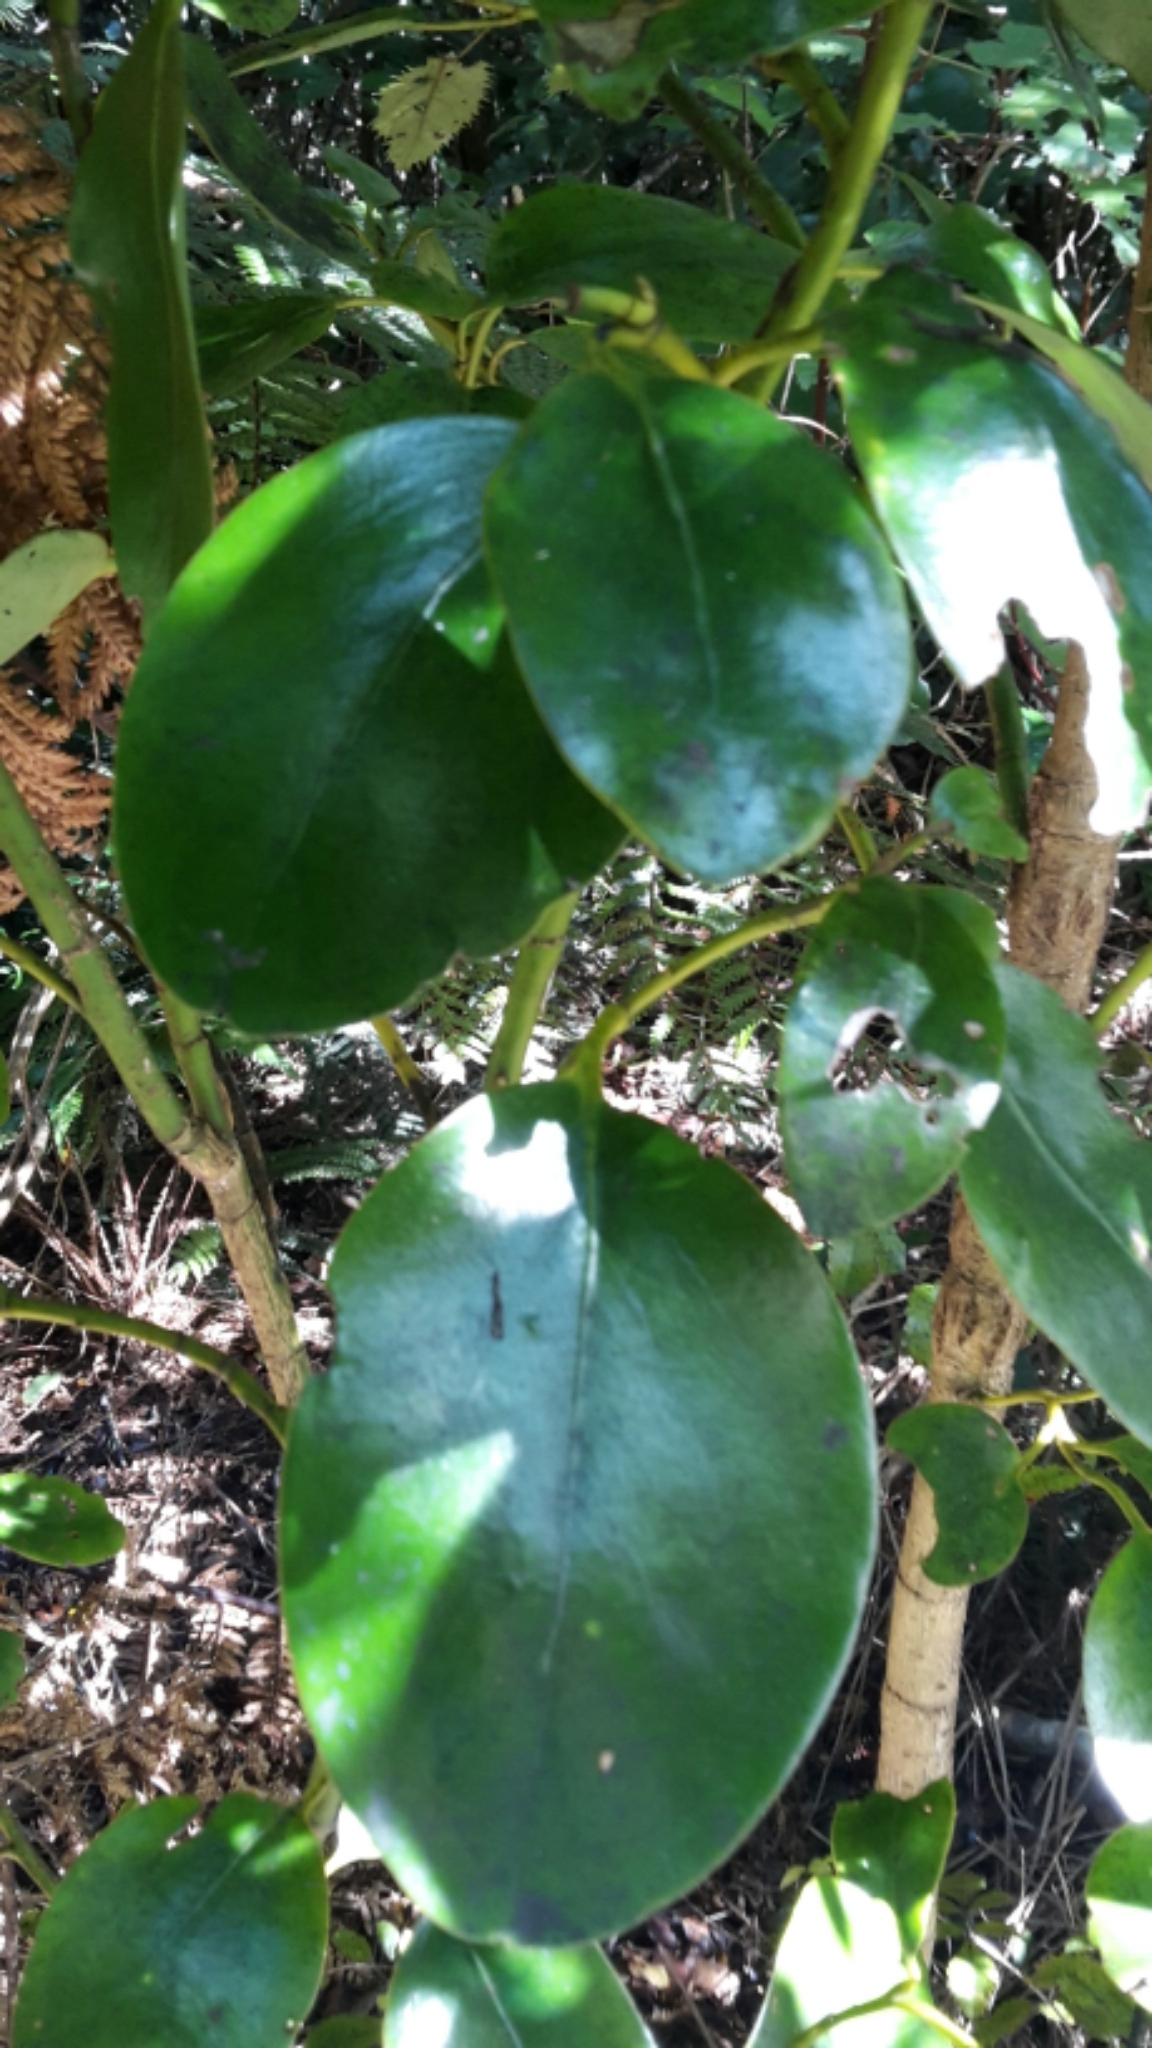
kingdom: Plantae
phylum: Tracheophyta
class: Magnoliopsida
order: Apiales
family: Griseliniaceae
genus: Griselinia
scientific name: Griselinia littoralis
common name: New zealand broadleaf
